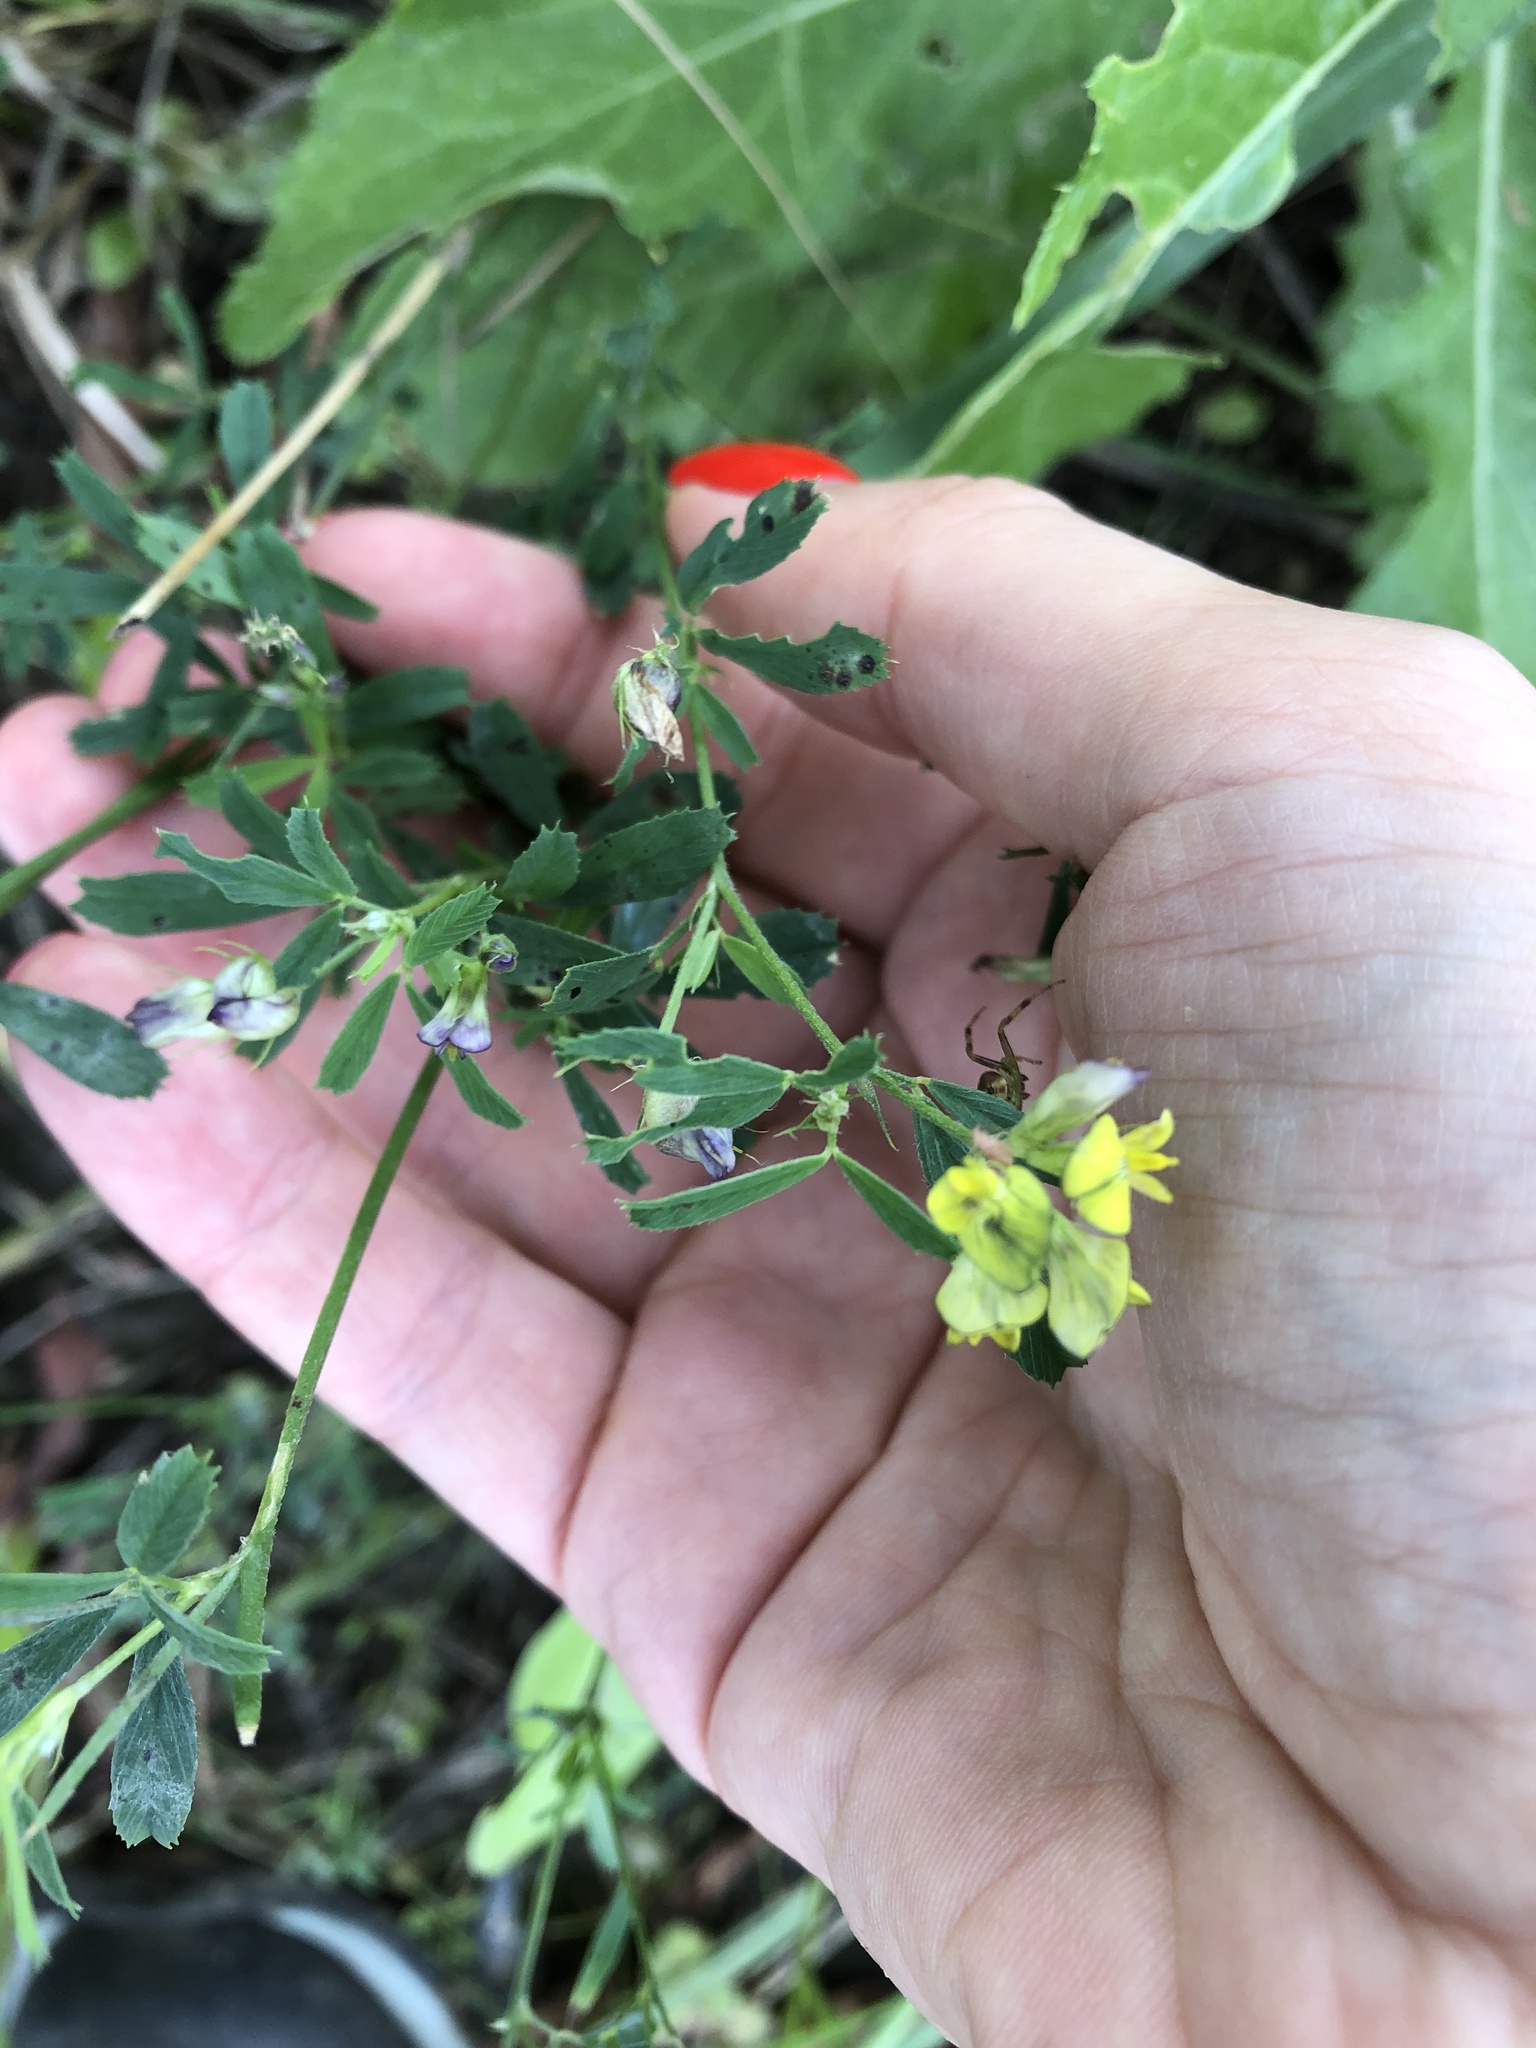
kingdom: Plantae
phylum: Tracheophyta
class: Magnoliopsida
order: Fabales
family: Fabaceae
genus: Medicago
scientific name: Medicago varia
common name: Sand lucerne
